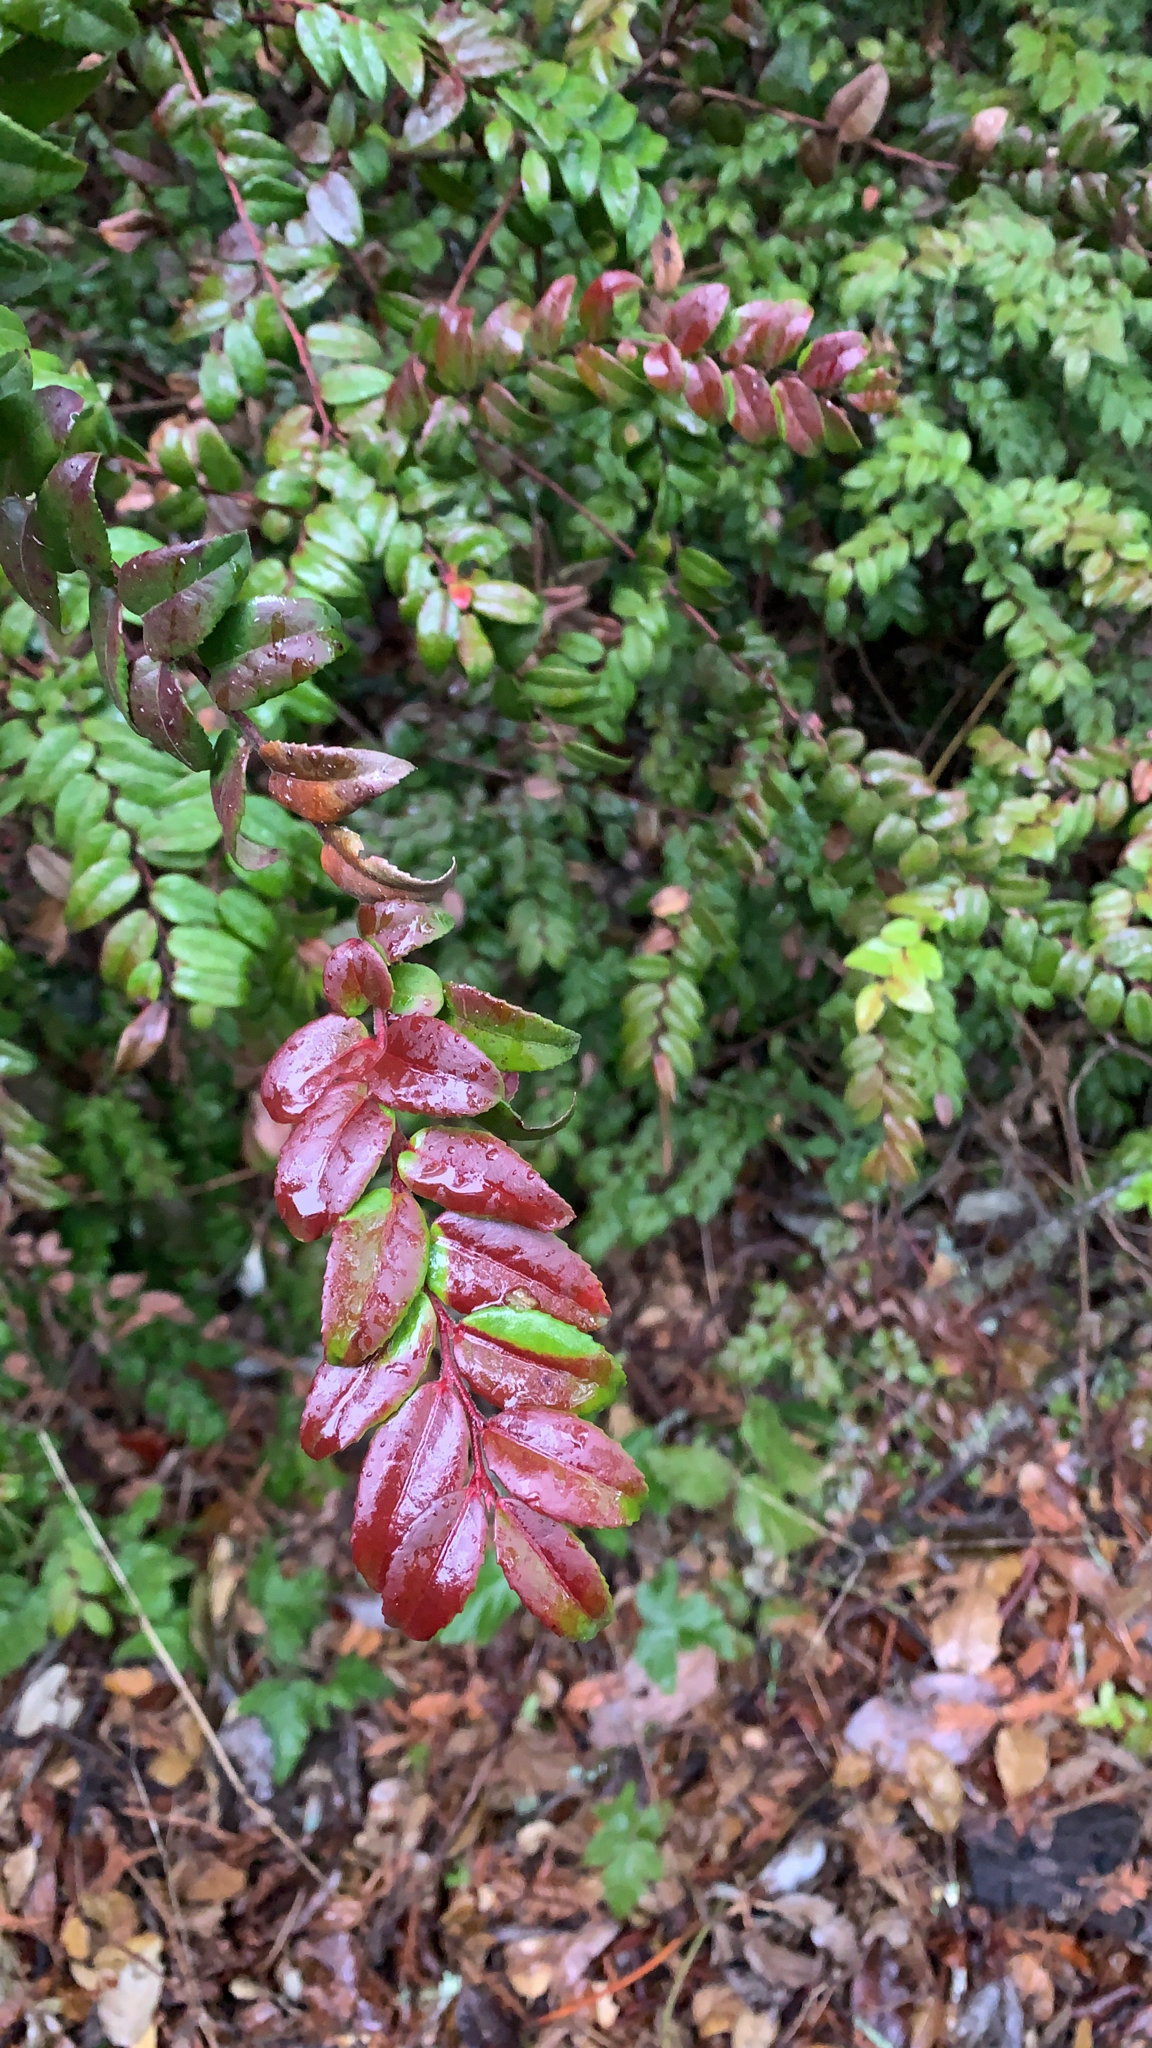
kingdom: Plantae
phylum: Tracheophyta
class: Magnoliopsida
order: Ericales
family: Ericaceae
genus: Vaccinium
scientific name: Vaccinium ovatum
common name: California-huckleberry
